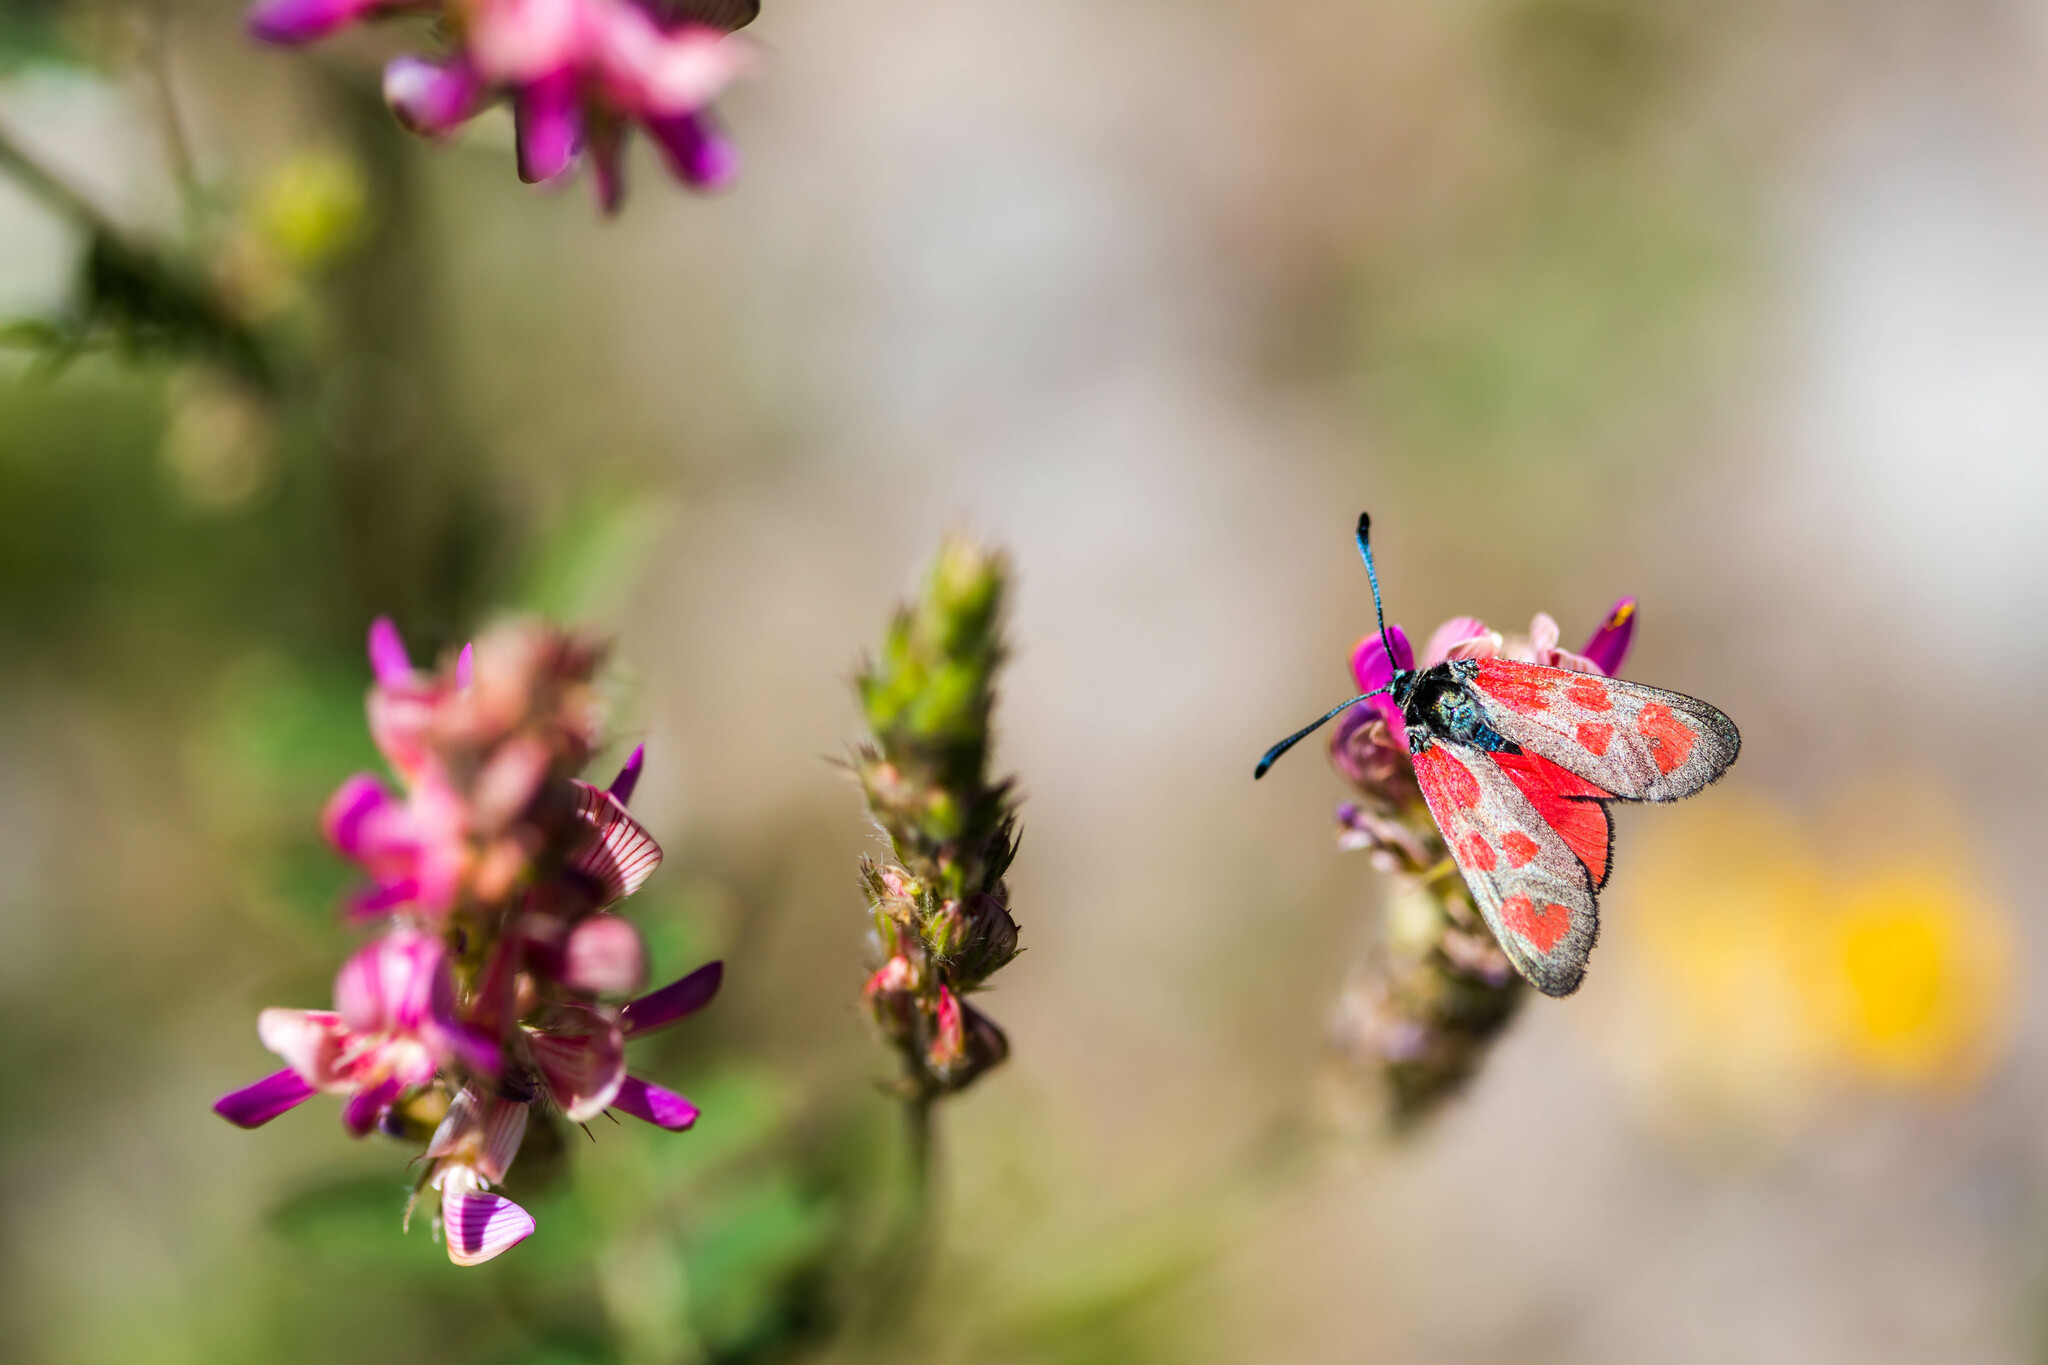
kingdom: Animalia
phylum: Arthropoda
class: Insecta
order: Lepidoptera
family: Zygaenidae
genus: Zygaena
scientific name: Zygaena loti
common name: Slender scotch burnet
